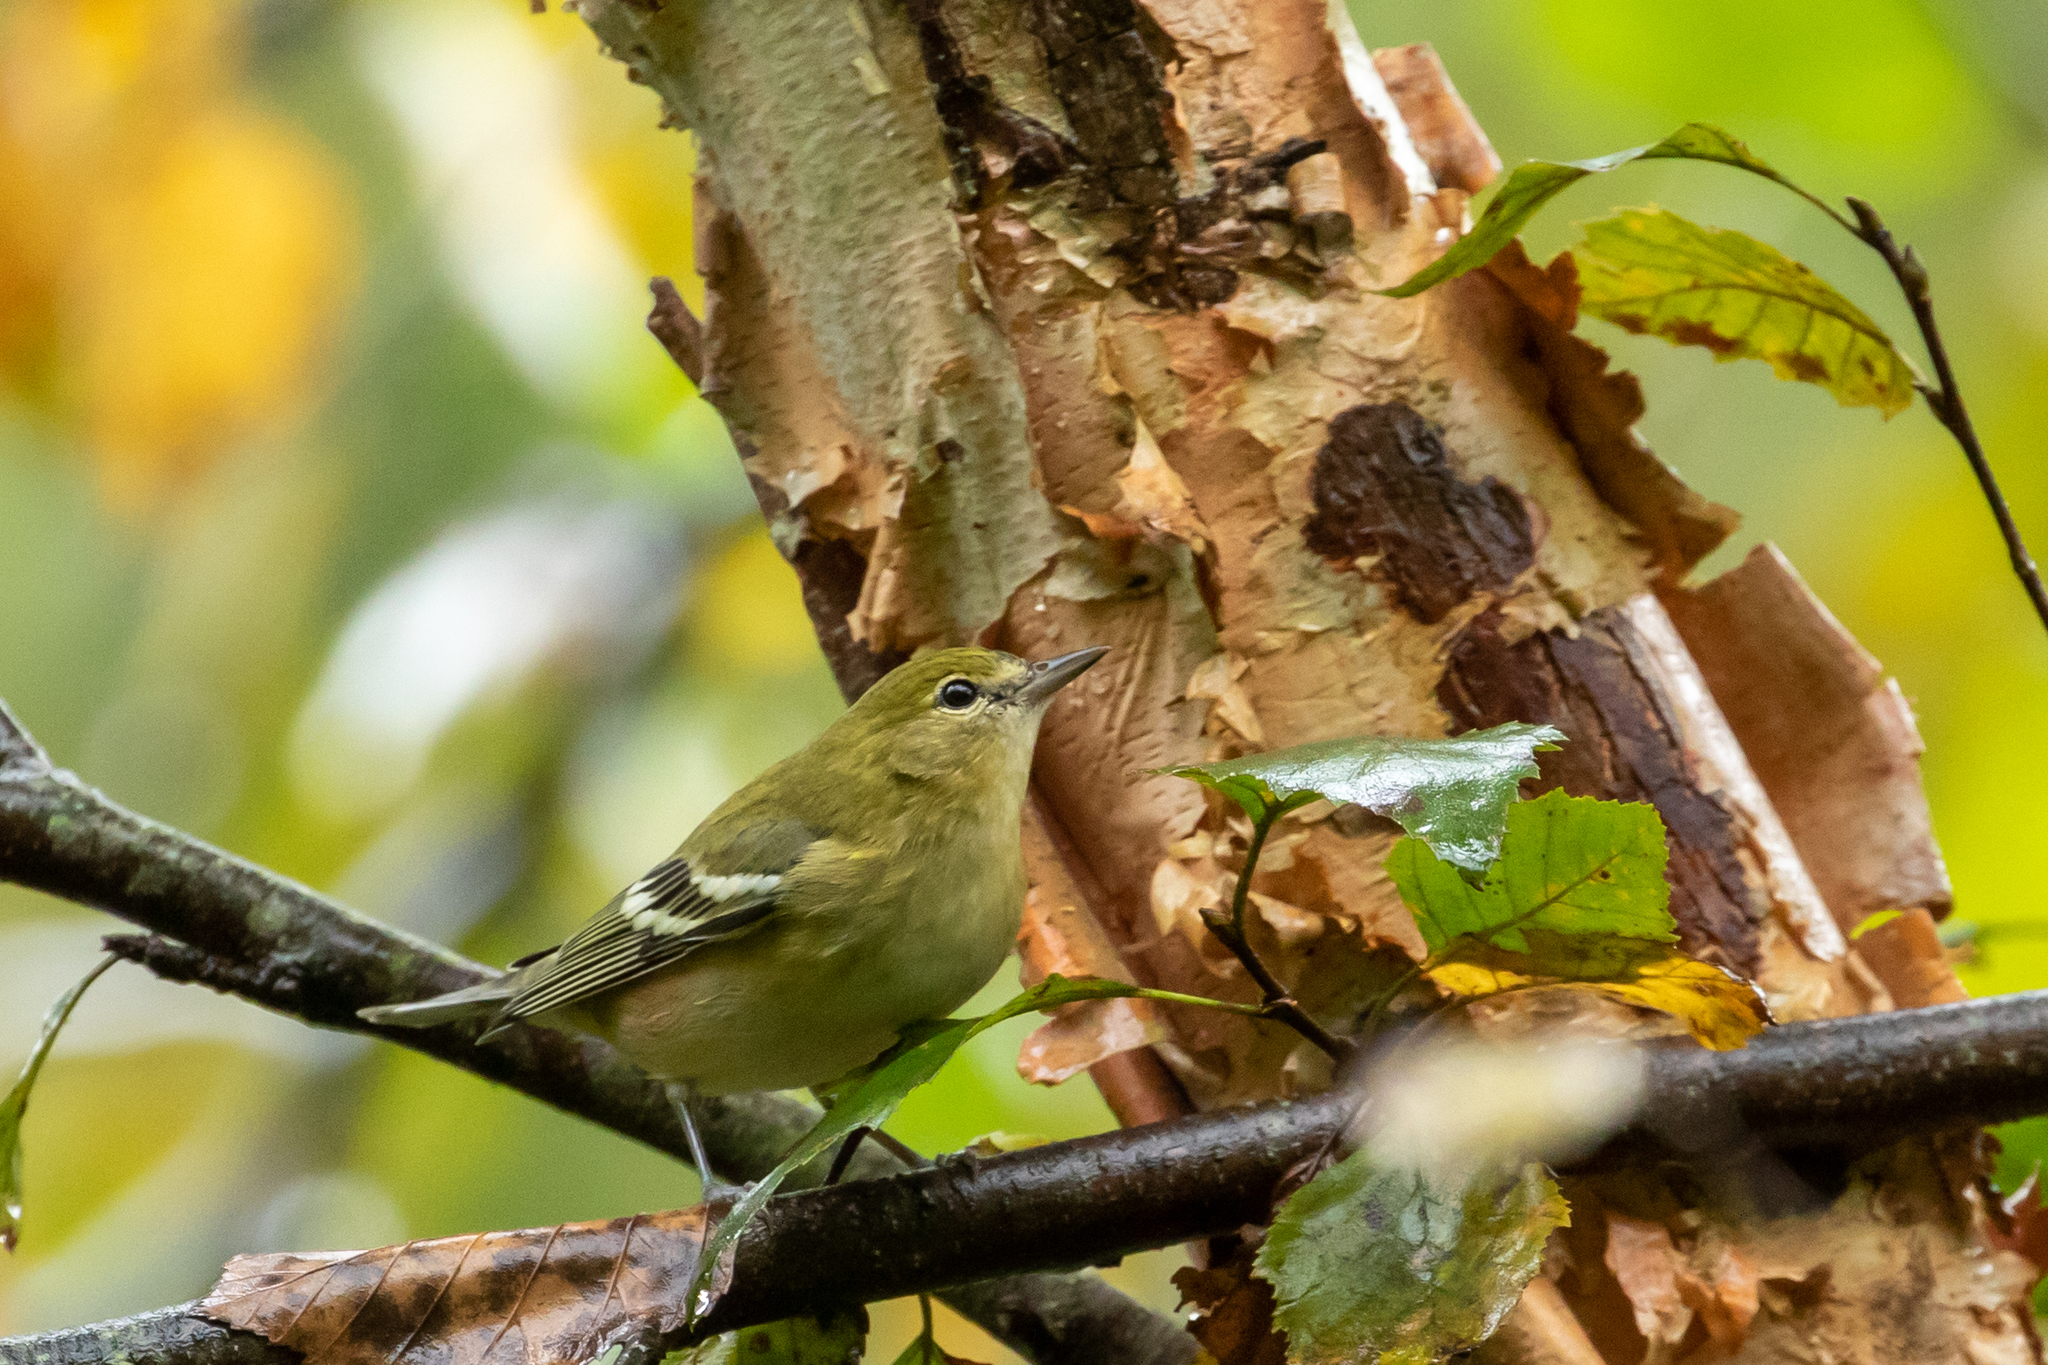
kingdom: Animalia
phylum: Chordata
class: Aves
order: Passeriformes
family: Parulidae
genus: Setophaga
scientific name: Setophaga castanea
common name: Bay-breasted warbler
